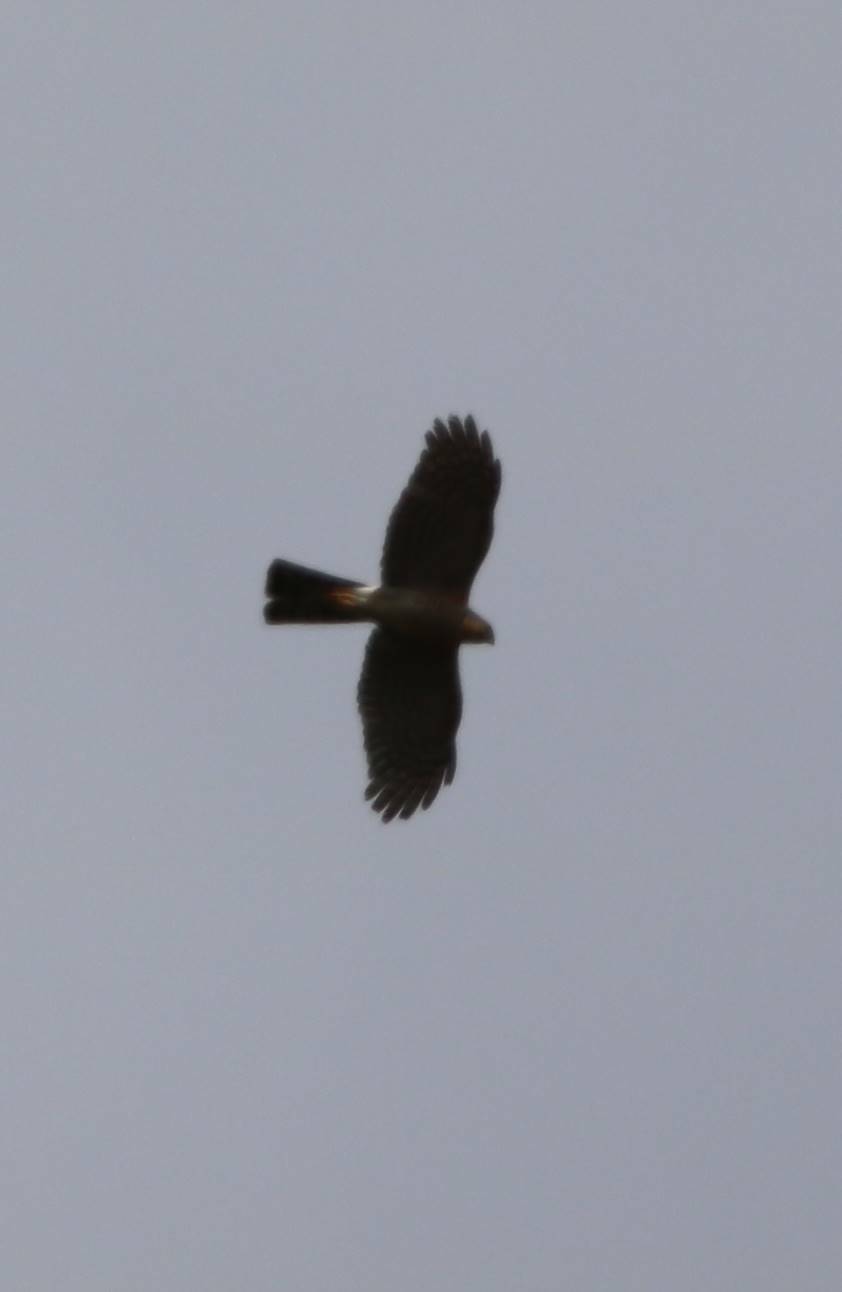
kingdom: Animalia
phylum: Chordata
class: Aves
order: Accipitriformes
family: Accipitridae
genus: Accipiter
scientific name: Accipiter nisus
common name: Eurasian sparrowhawk
